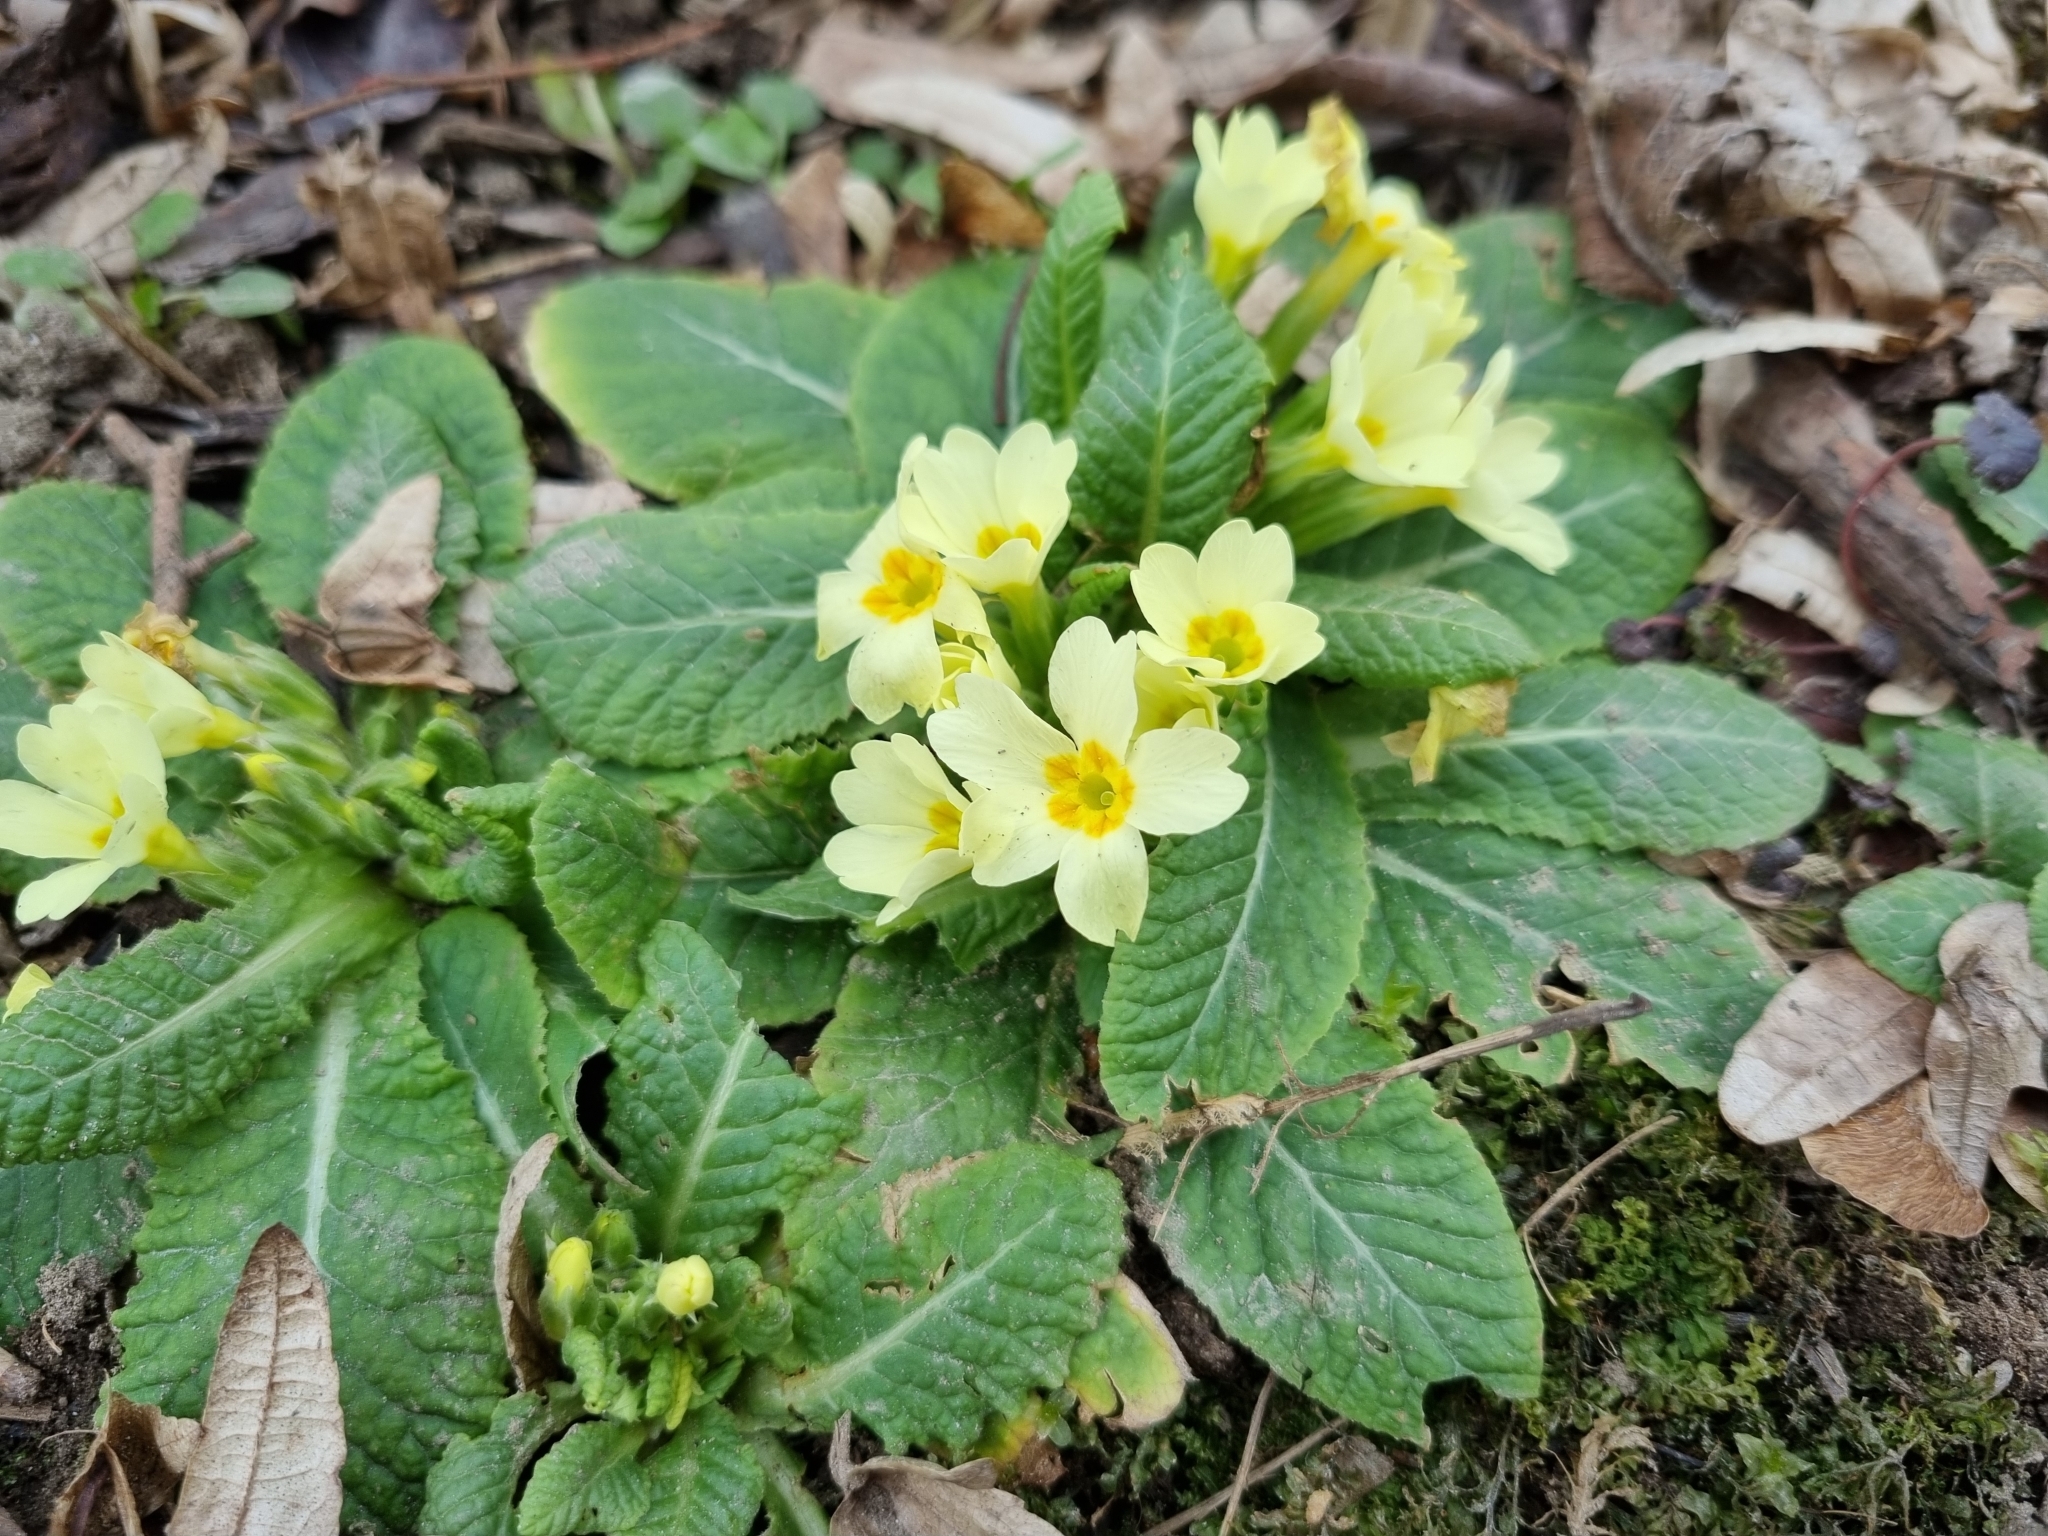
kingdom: Plantae
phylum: Tracheophyta
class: Magnoliopsida
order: Ericales
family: Primulaceae
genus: Primula
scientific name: Primula vulgaris
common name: Primrose
